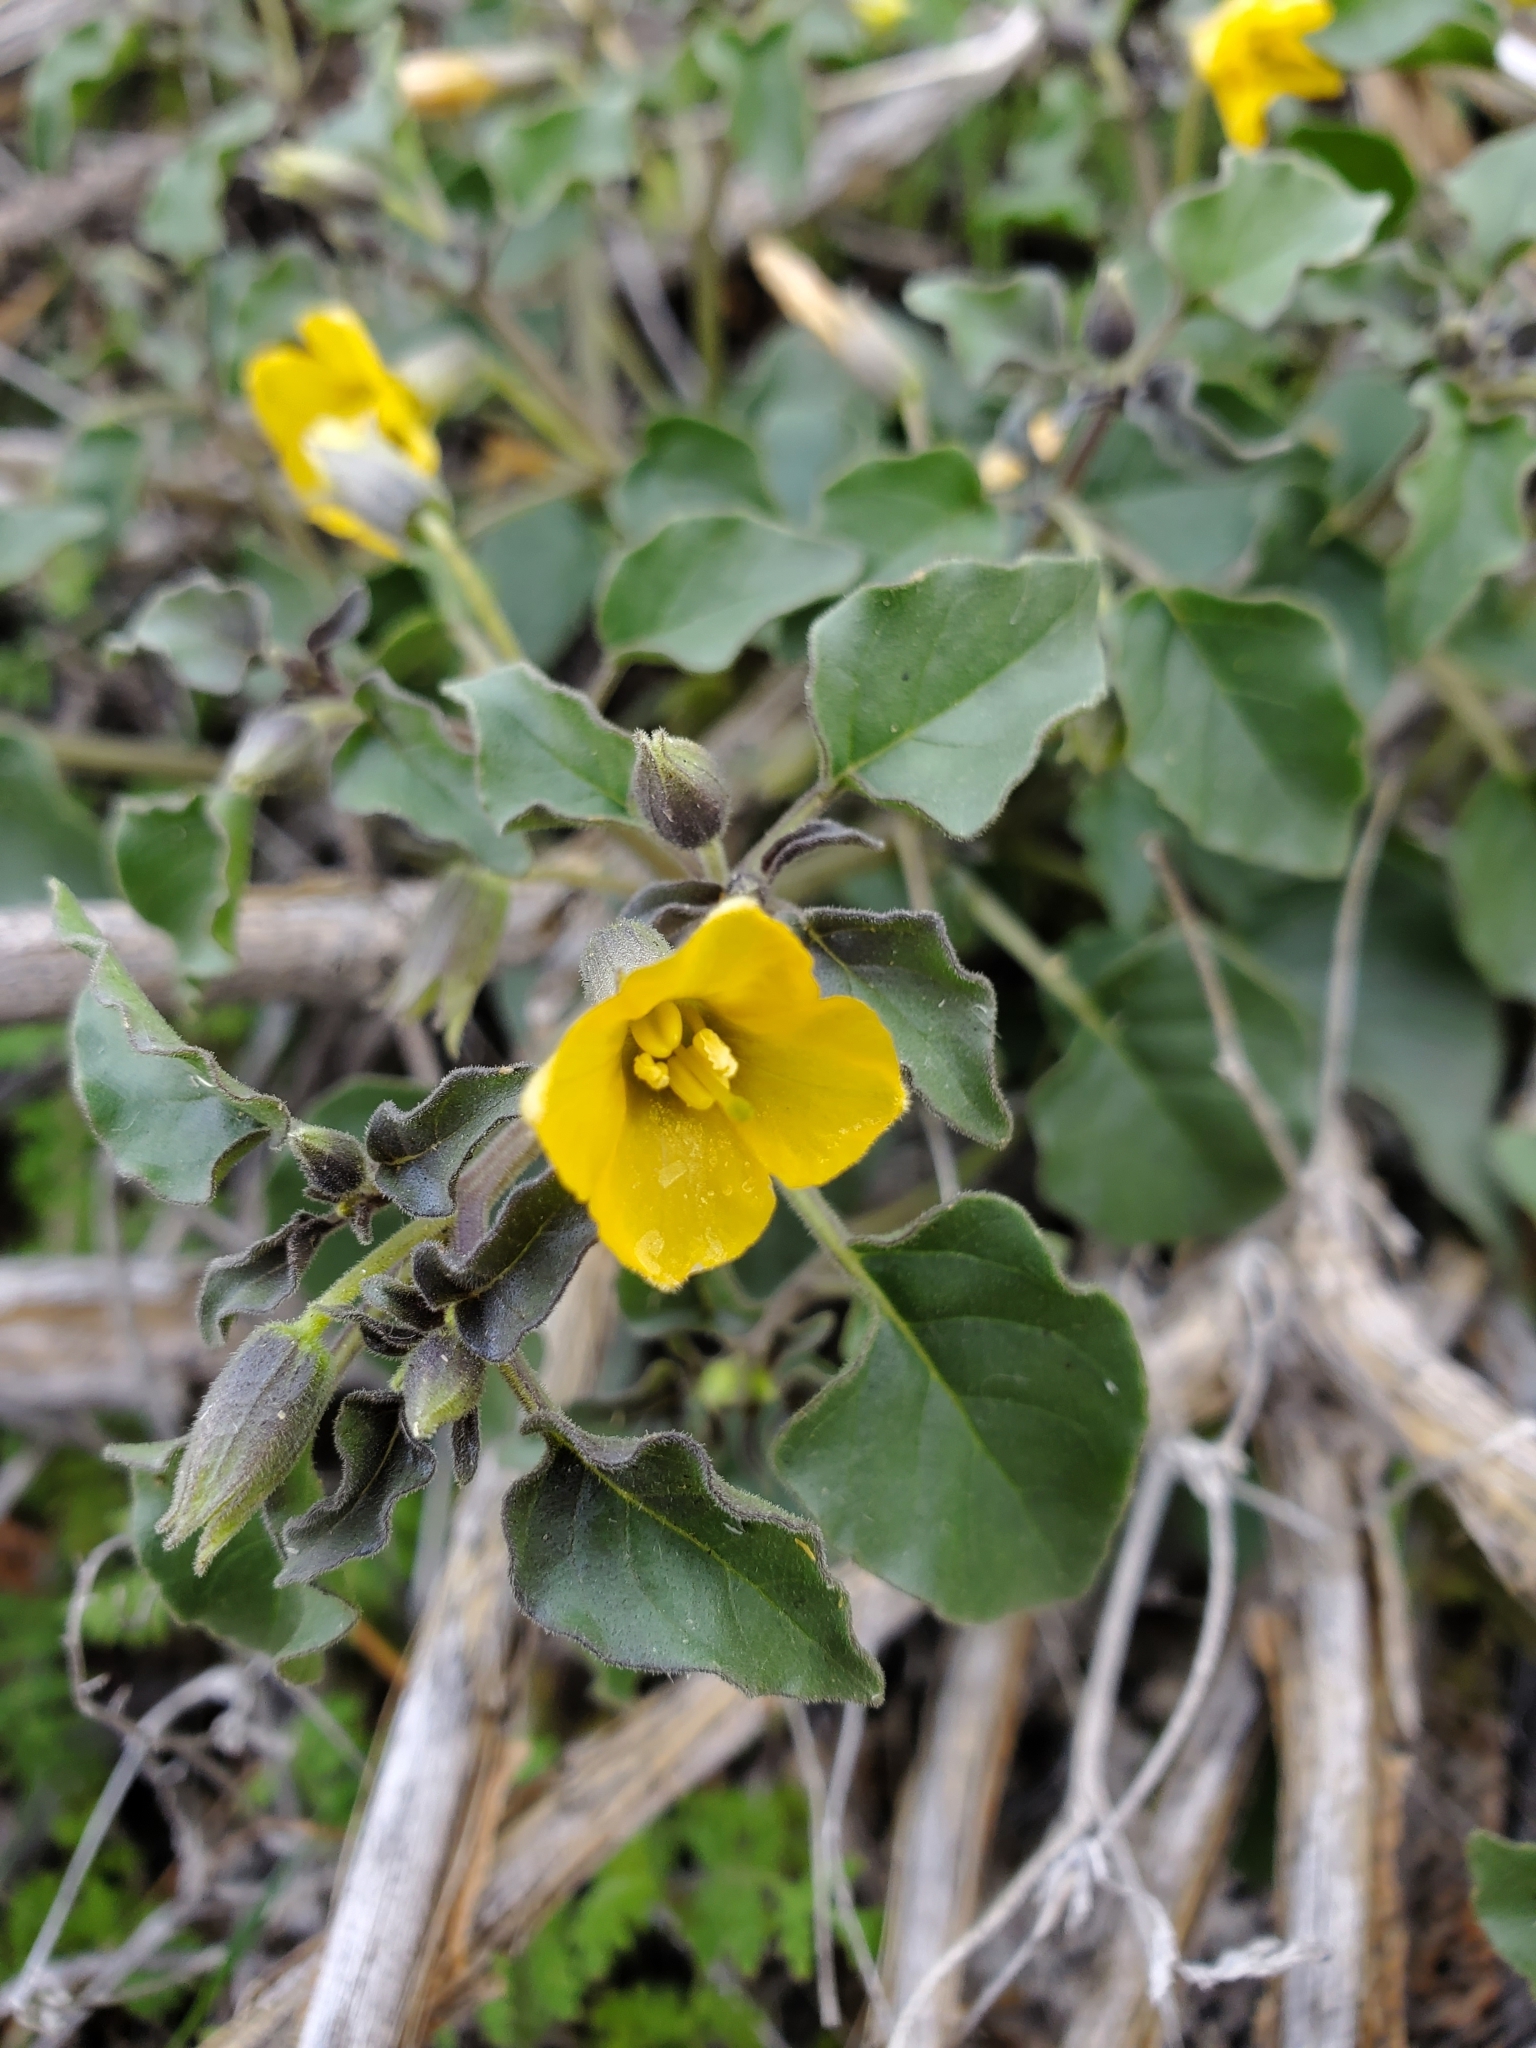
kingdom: Plantae
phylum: Tracheophyta
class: Magnoliopsida
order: Solanales
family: Solanaceae
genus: Physalis
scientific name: Physalis crassifolia
